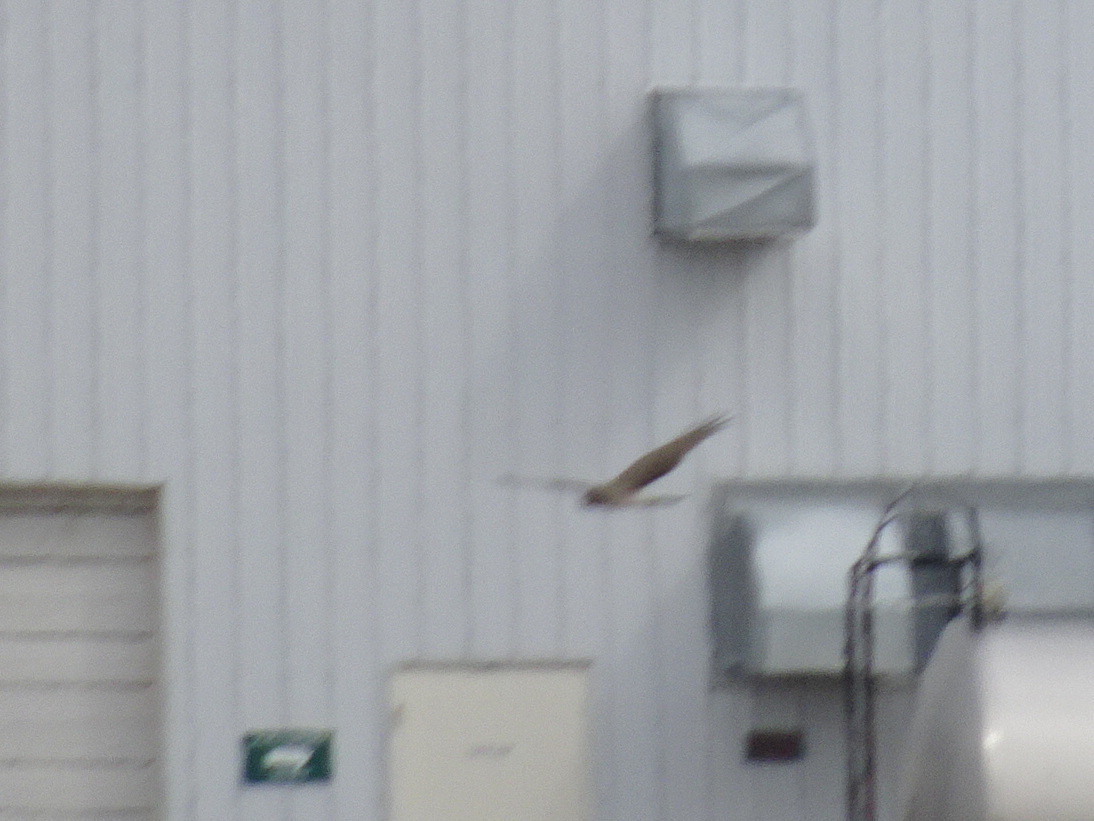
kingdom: Animalia
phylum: Chordata
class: Aves
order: Accipitriformes
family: Accipitridae
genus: Circus
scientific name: Circus cyaneus
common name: Hen harrier
